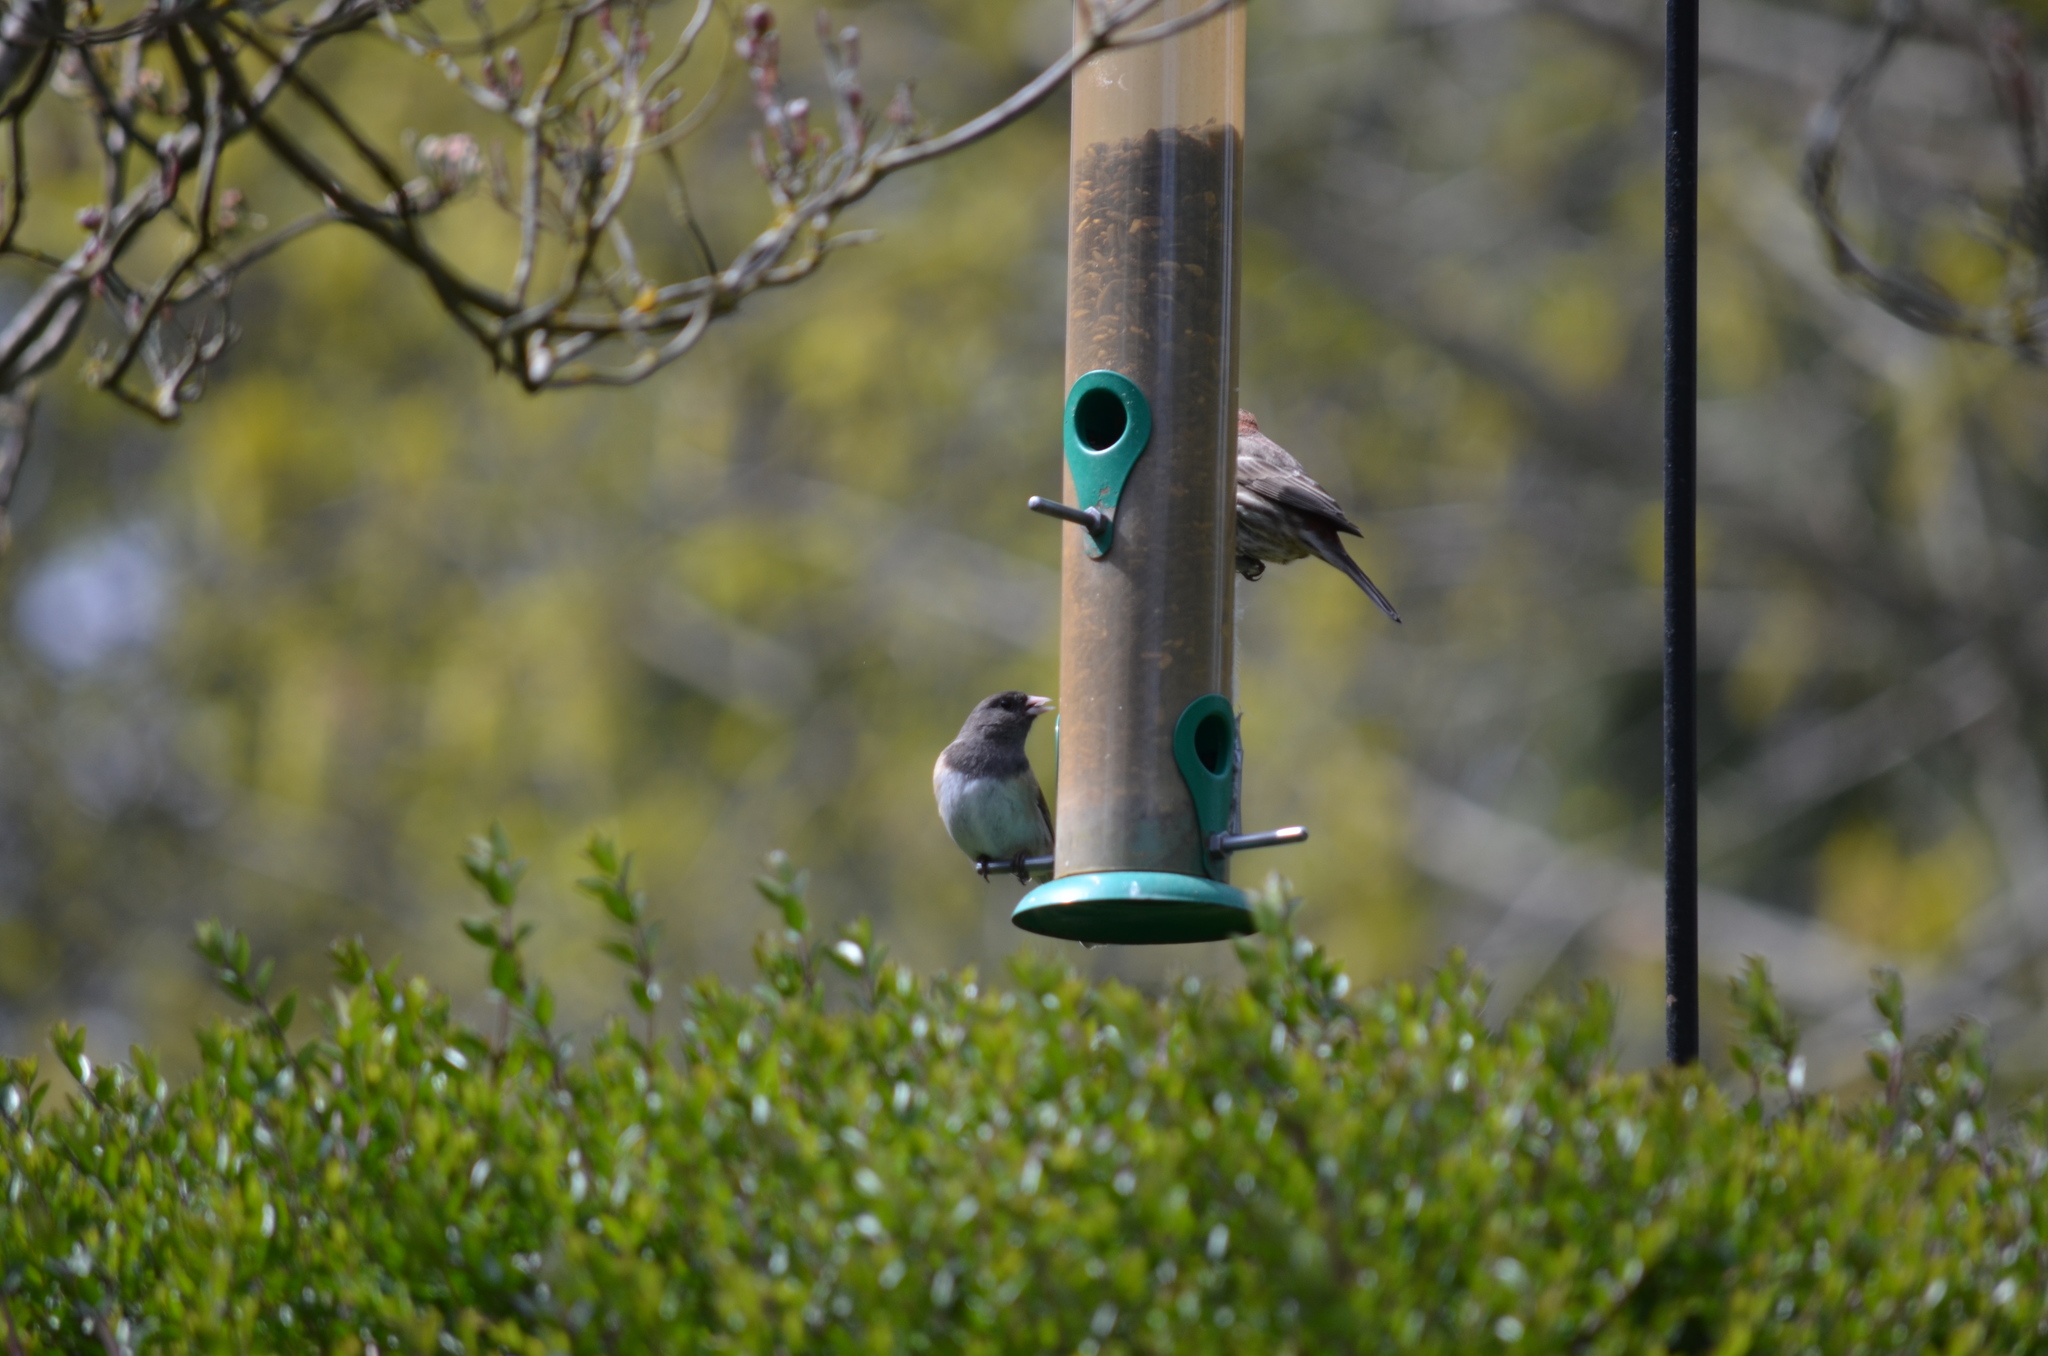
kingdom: Animalia
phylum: Chordata
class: Aves
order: Passeriformes
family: Passerellidae
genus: Junco
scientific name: Junco hyemalis
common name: Dark-eyed junco
